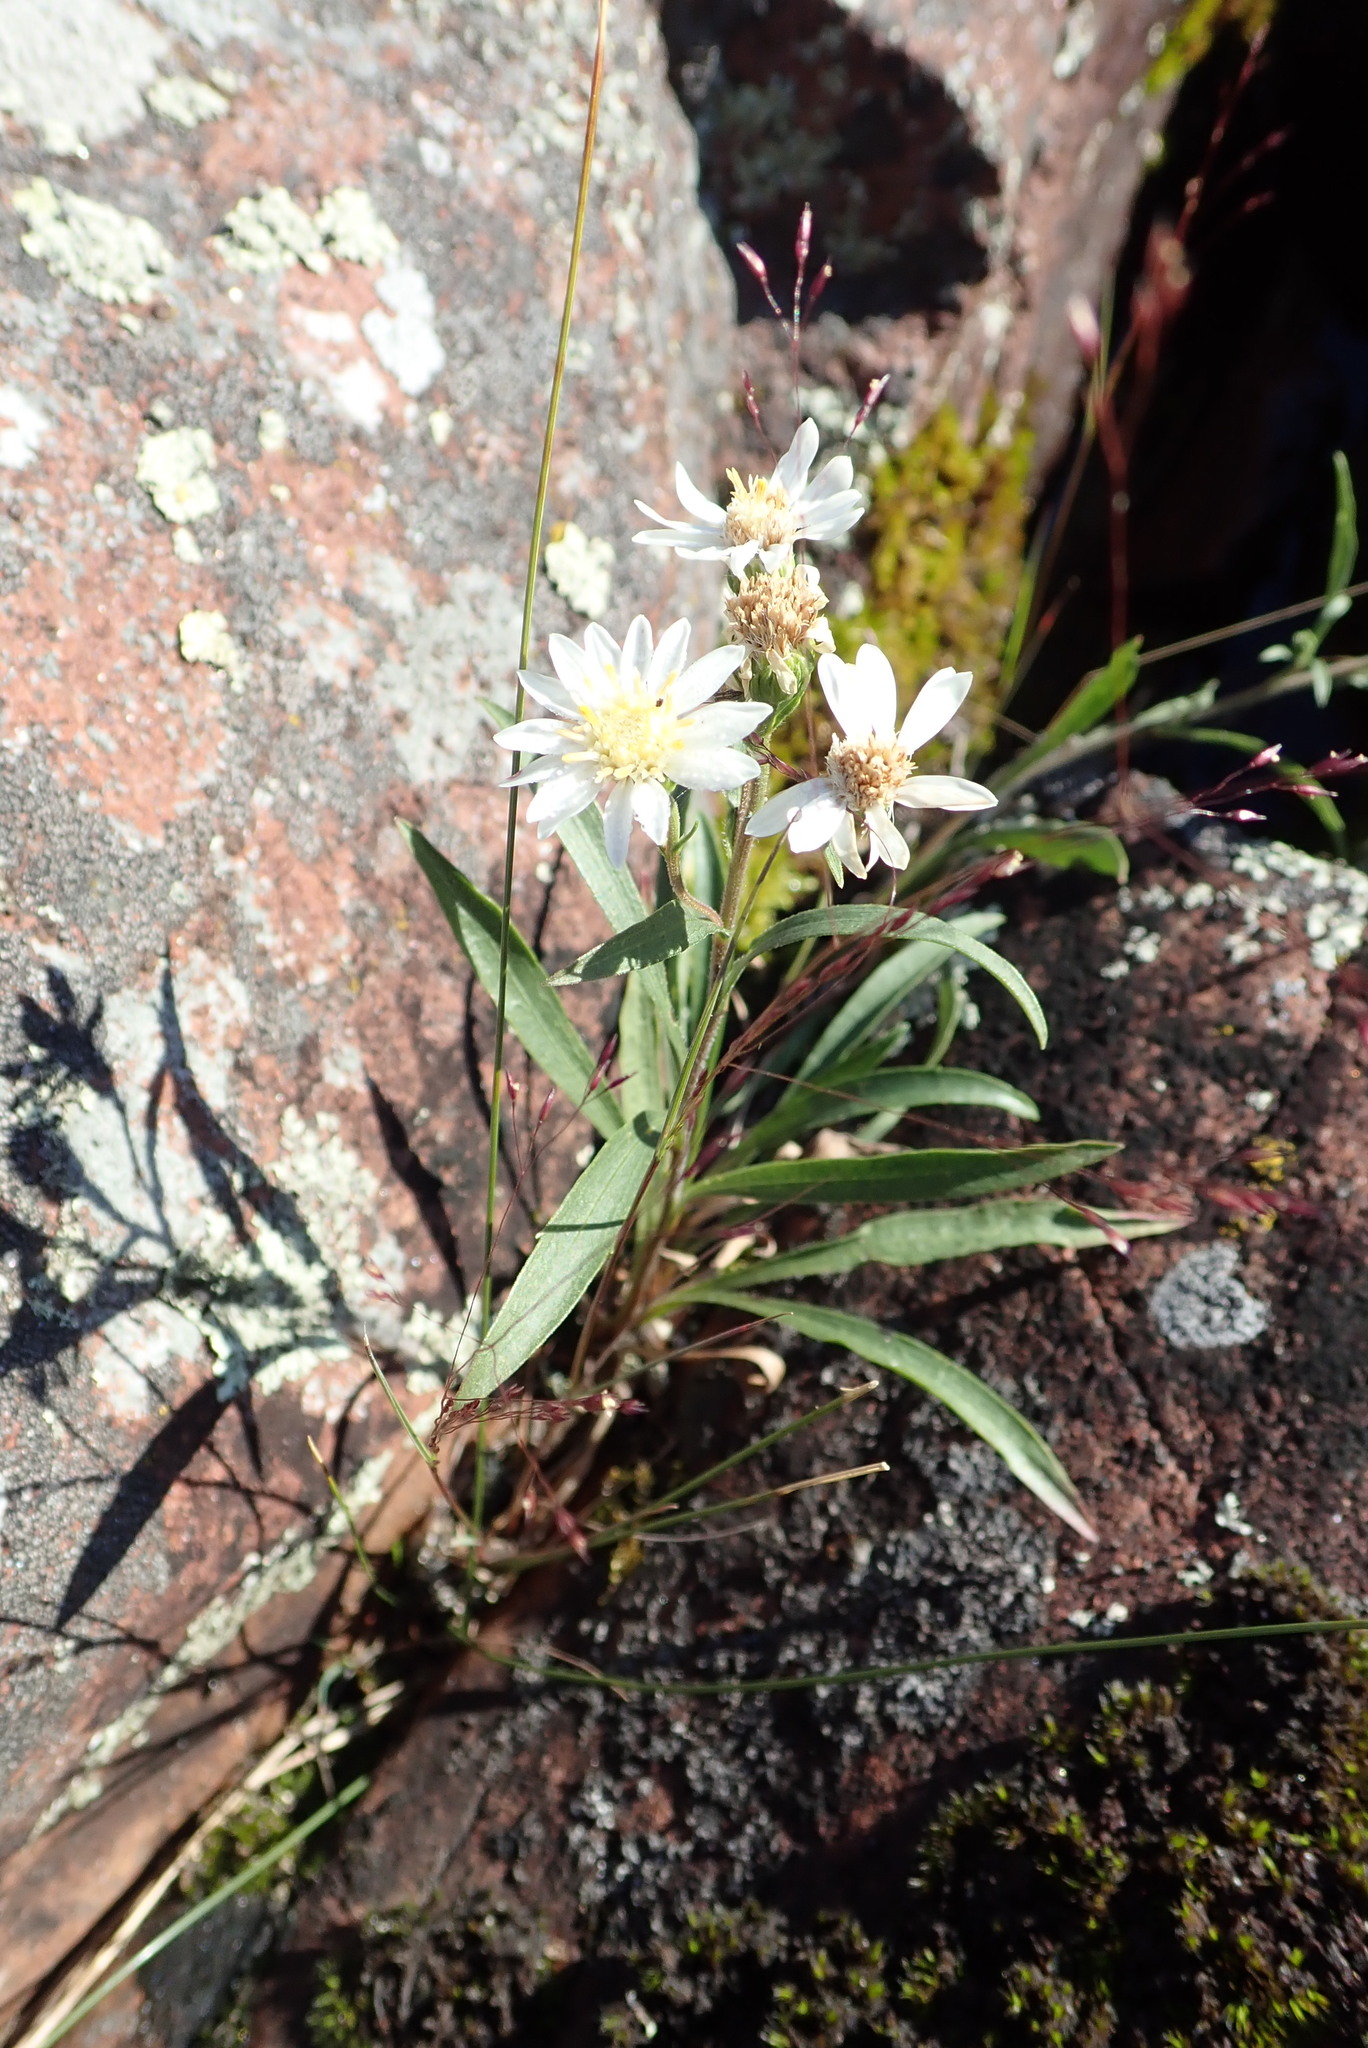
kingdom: Plantae
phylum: Tracheophyta
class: Magnoliopsida
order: Asterales
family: Asteraceae
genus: Solidago
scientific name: Solidago ptarmicoides
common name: White flat-top goldenrod
